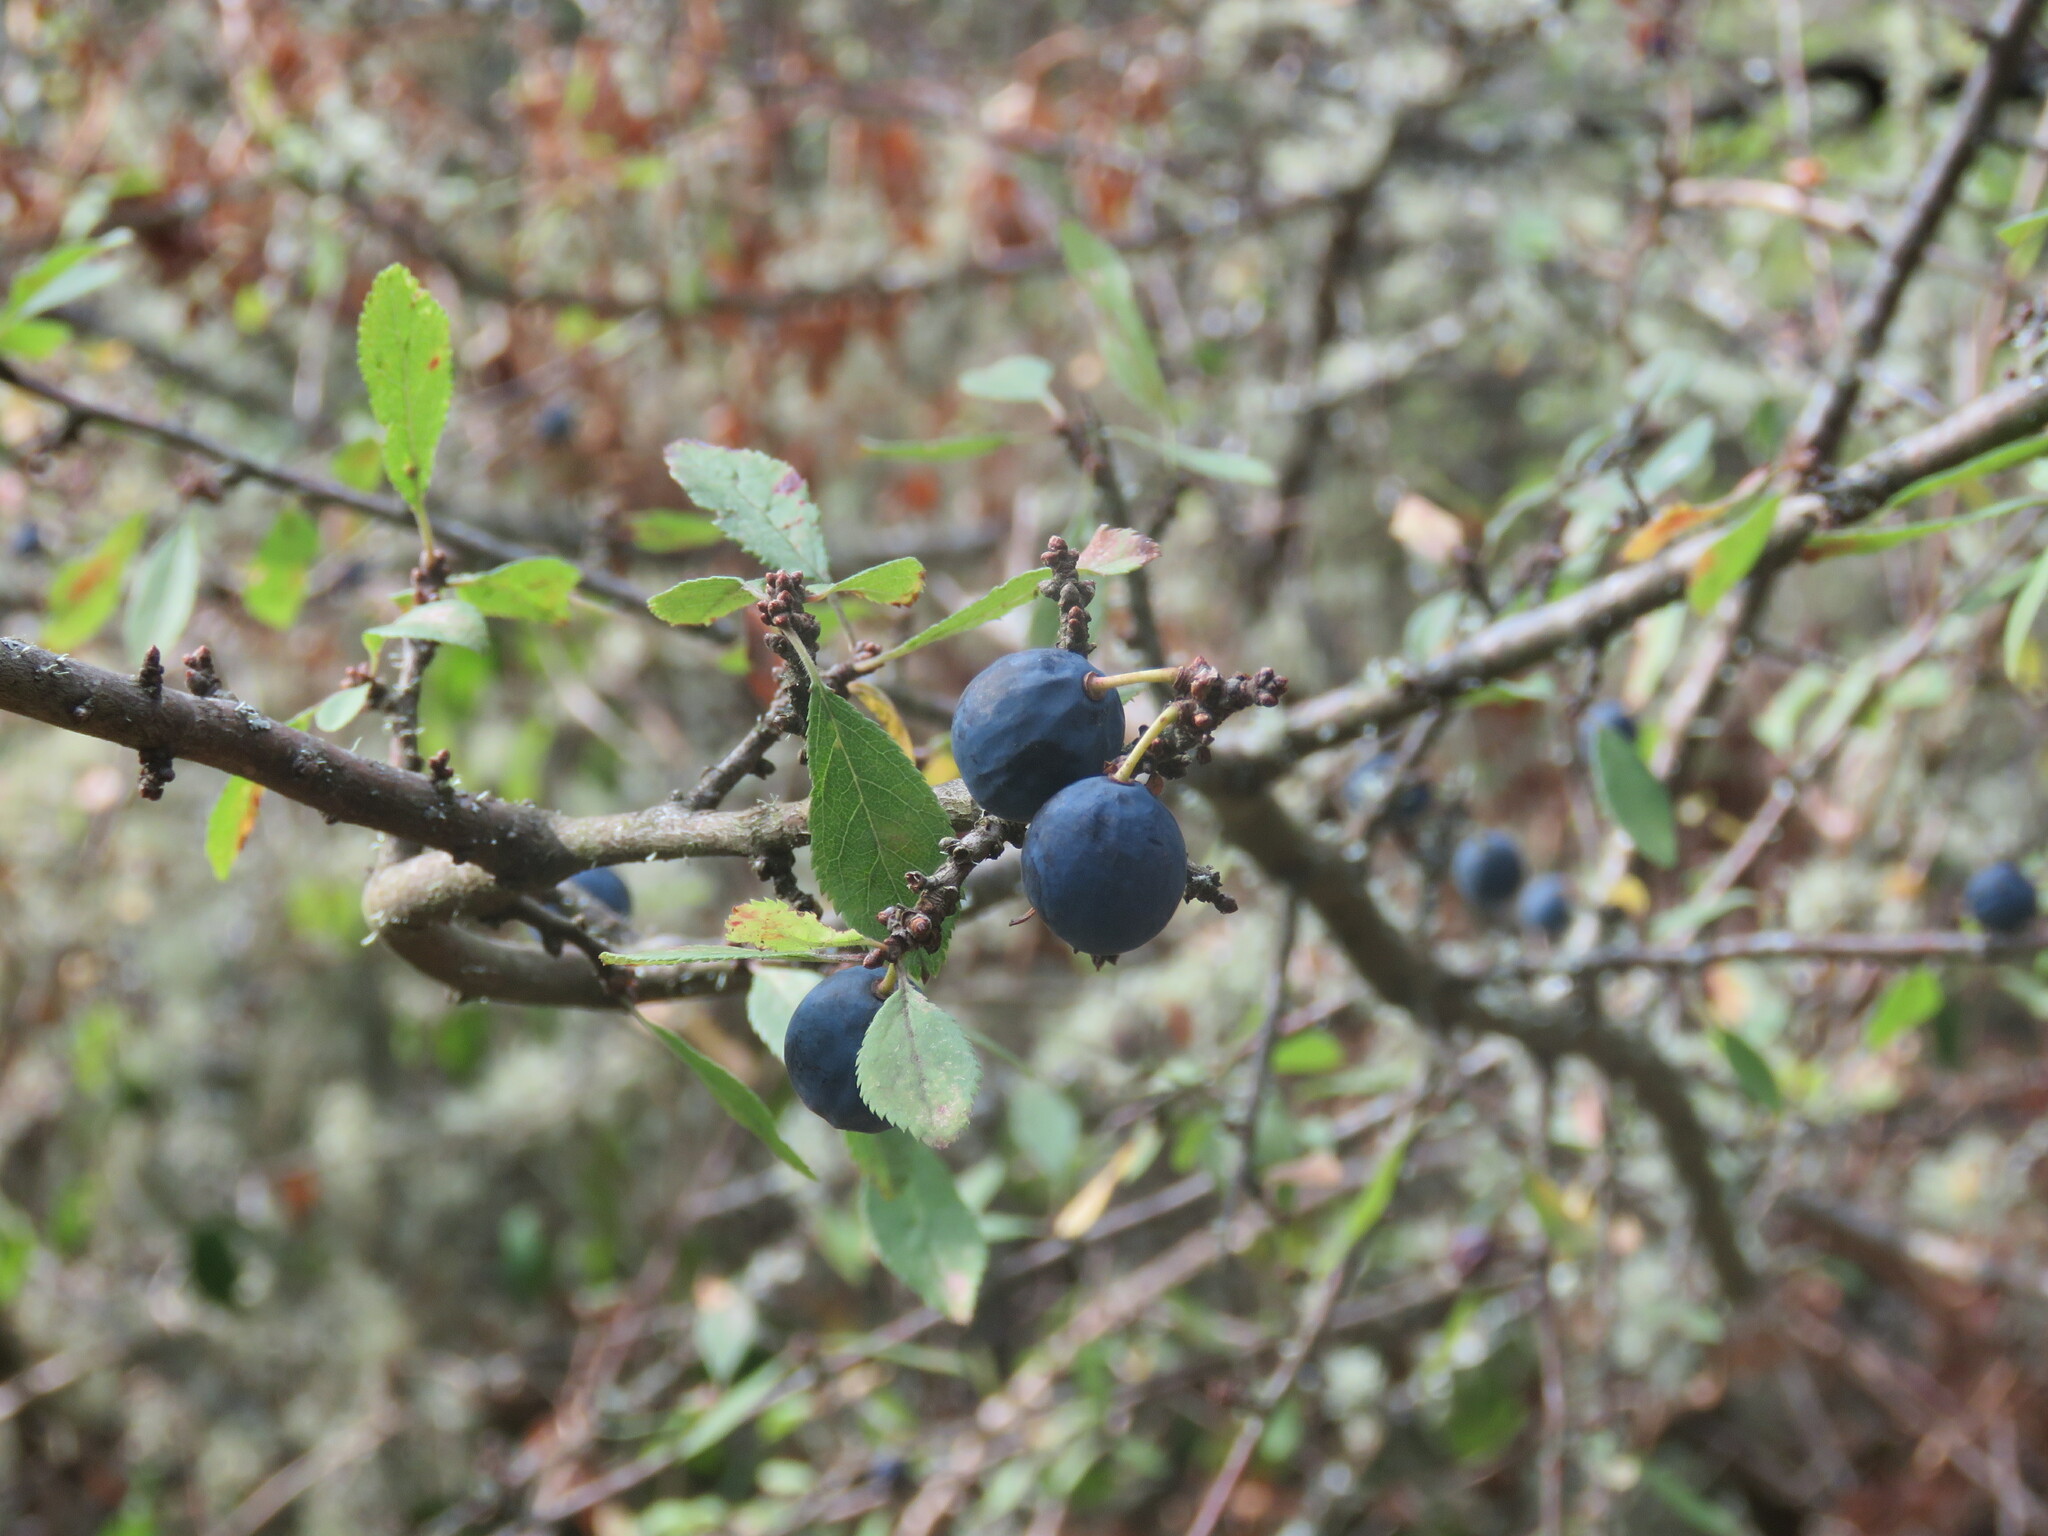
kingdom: Plantae
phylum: Tracheophyta
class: Magnoliopsida
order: Rosales
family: Rosaceae
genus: Prunus
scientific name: Prunus spinosa
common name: Blackthorn
